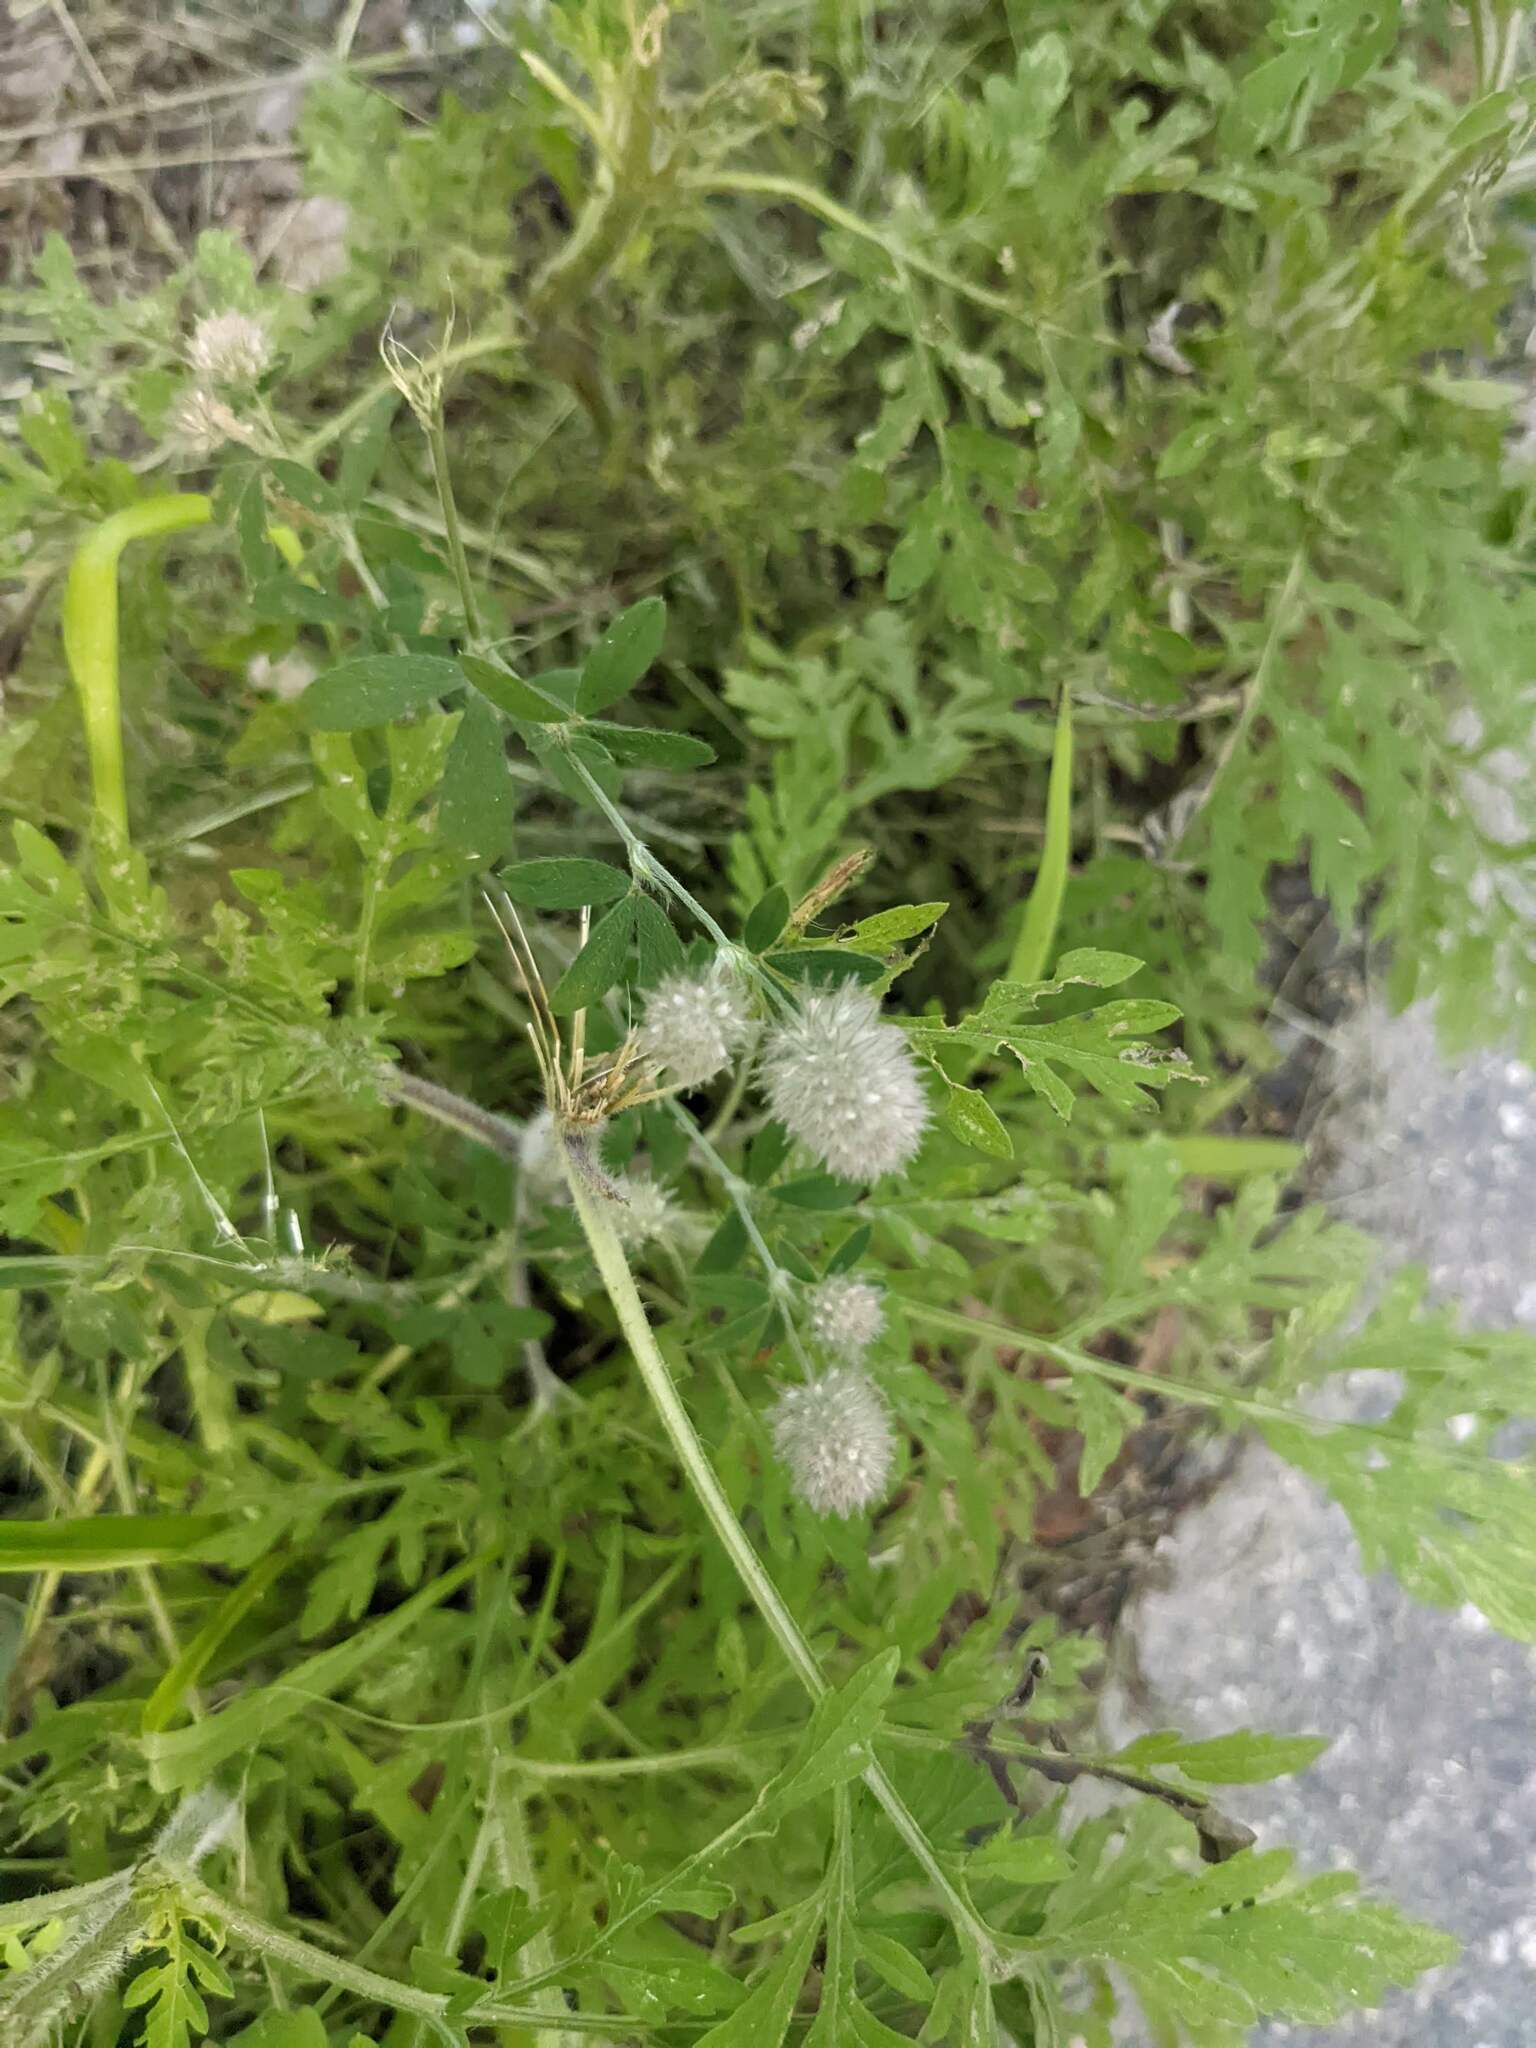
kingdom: Plantae
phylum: Tracheophyta
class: Magnoliopsida
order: Fabales
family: Fabaceae
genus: Trifolium
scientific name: Trifolium arvense
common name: Hare's-foot clover
